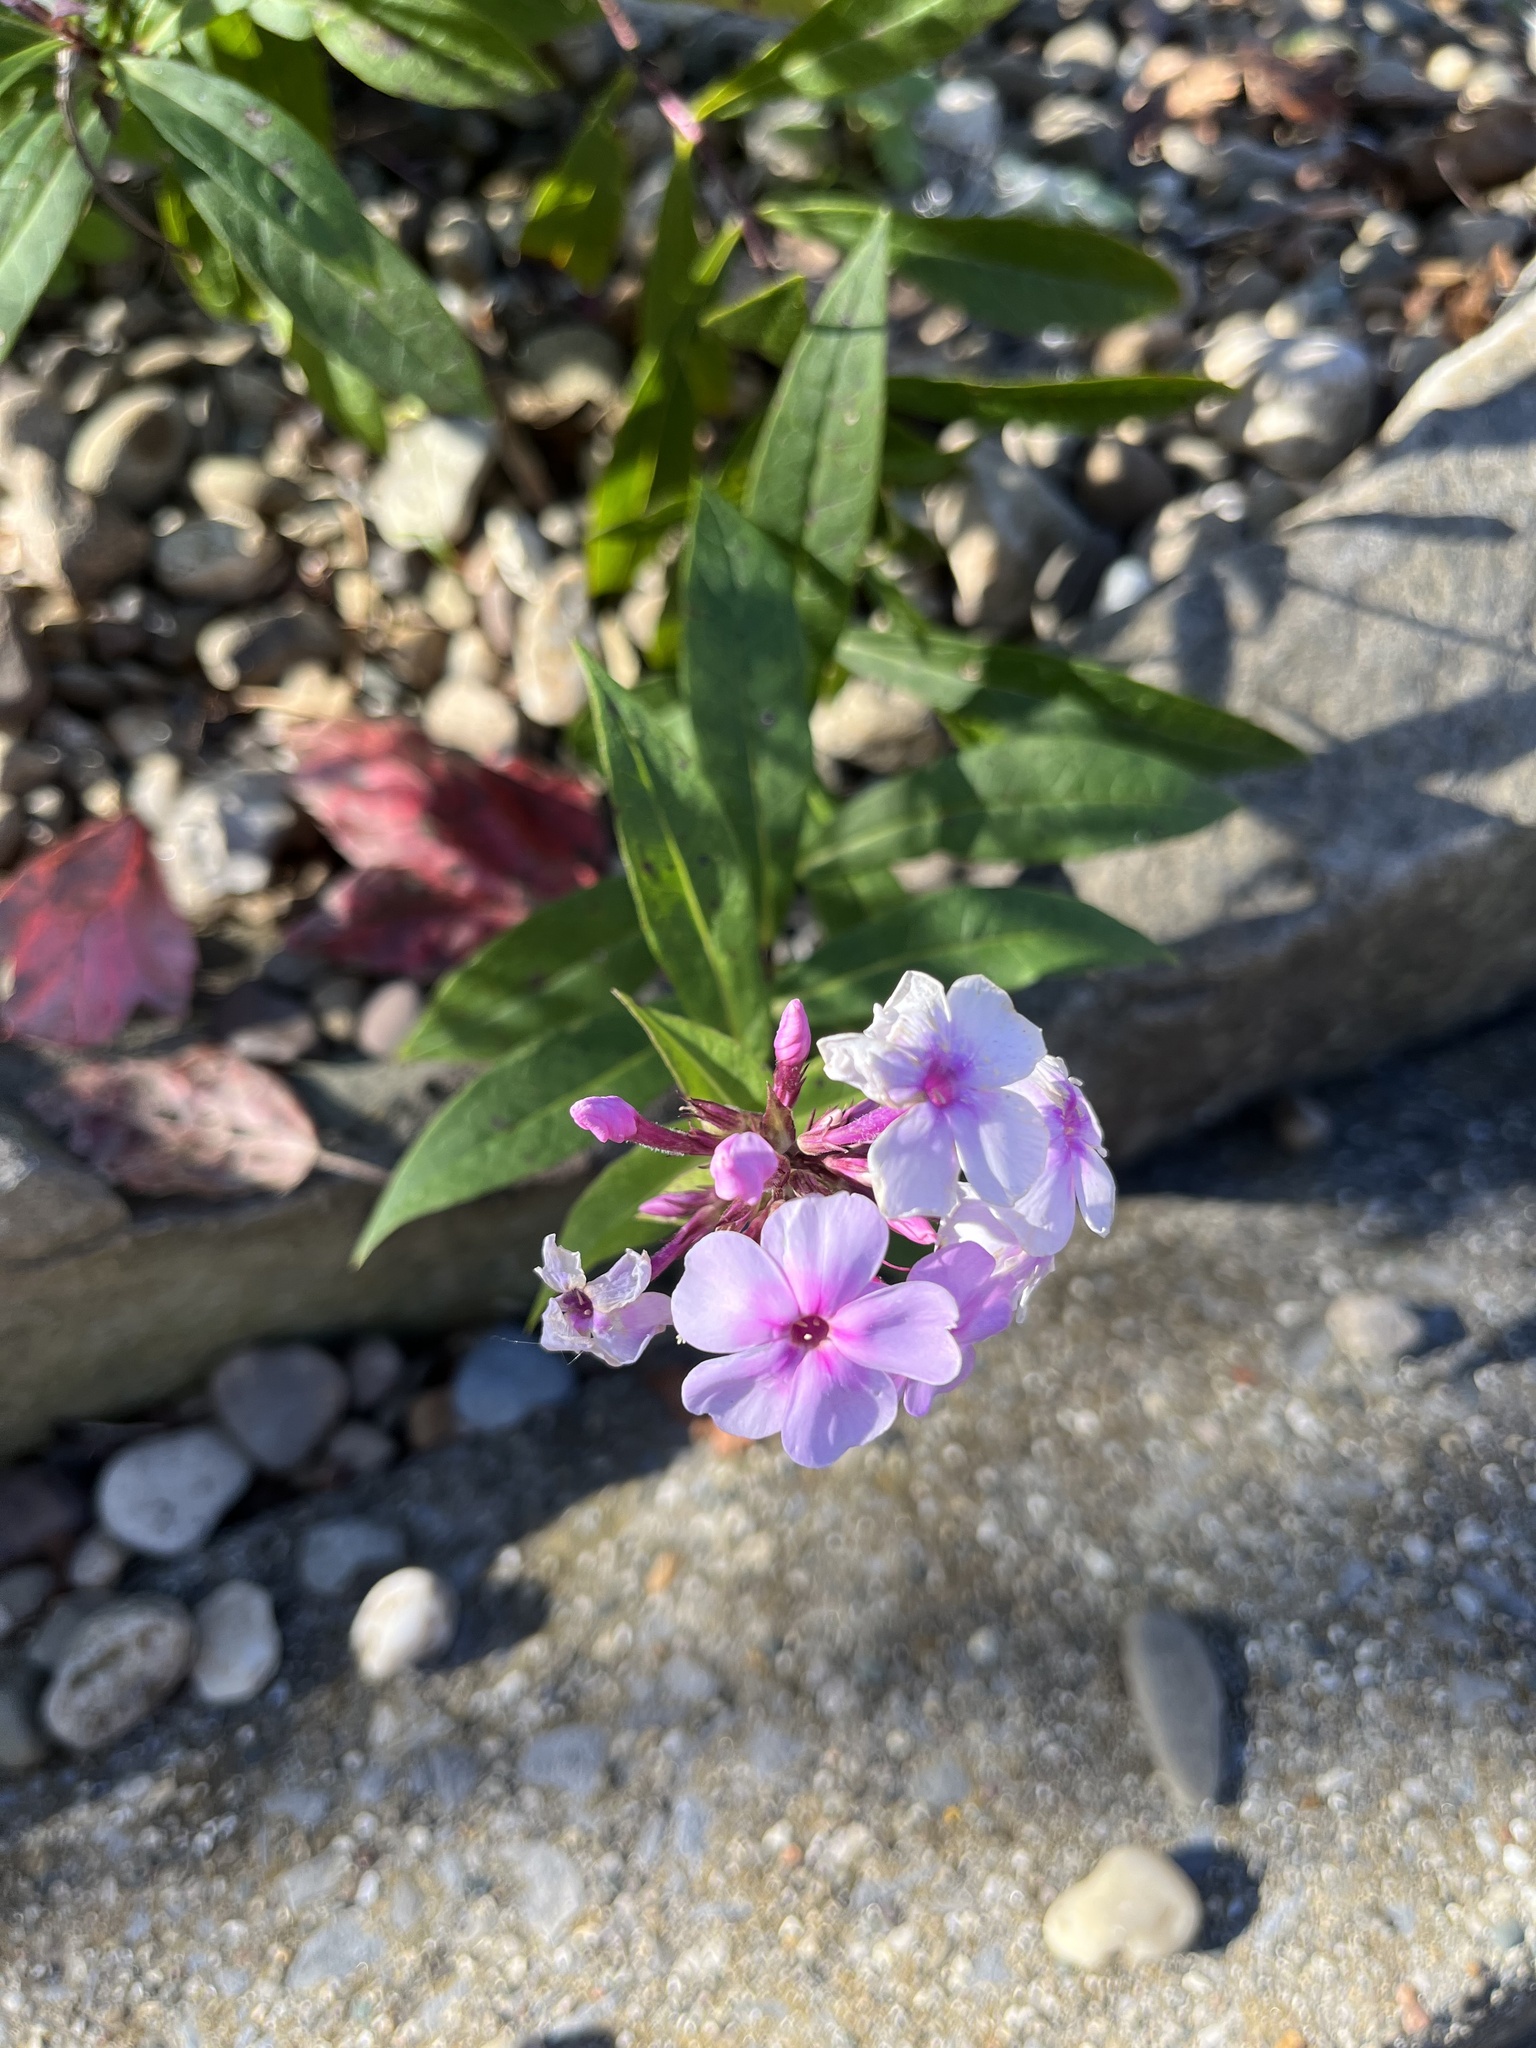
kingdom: Plantae
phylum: Tracheophyta
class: Magnoliopsida
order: Ericales
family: Polemoniaceae
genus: Phlox
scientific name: Phlox paniculata
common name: Fall phlox
